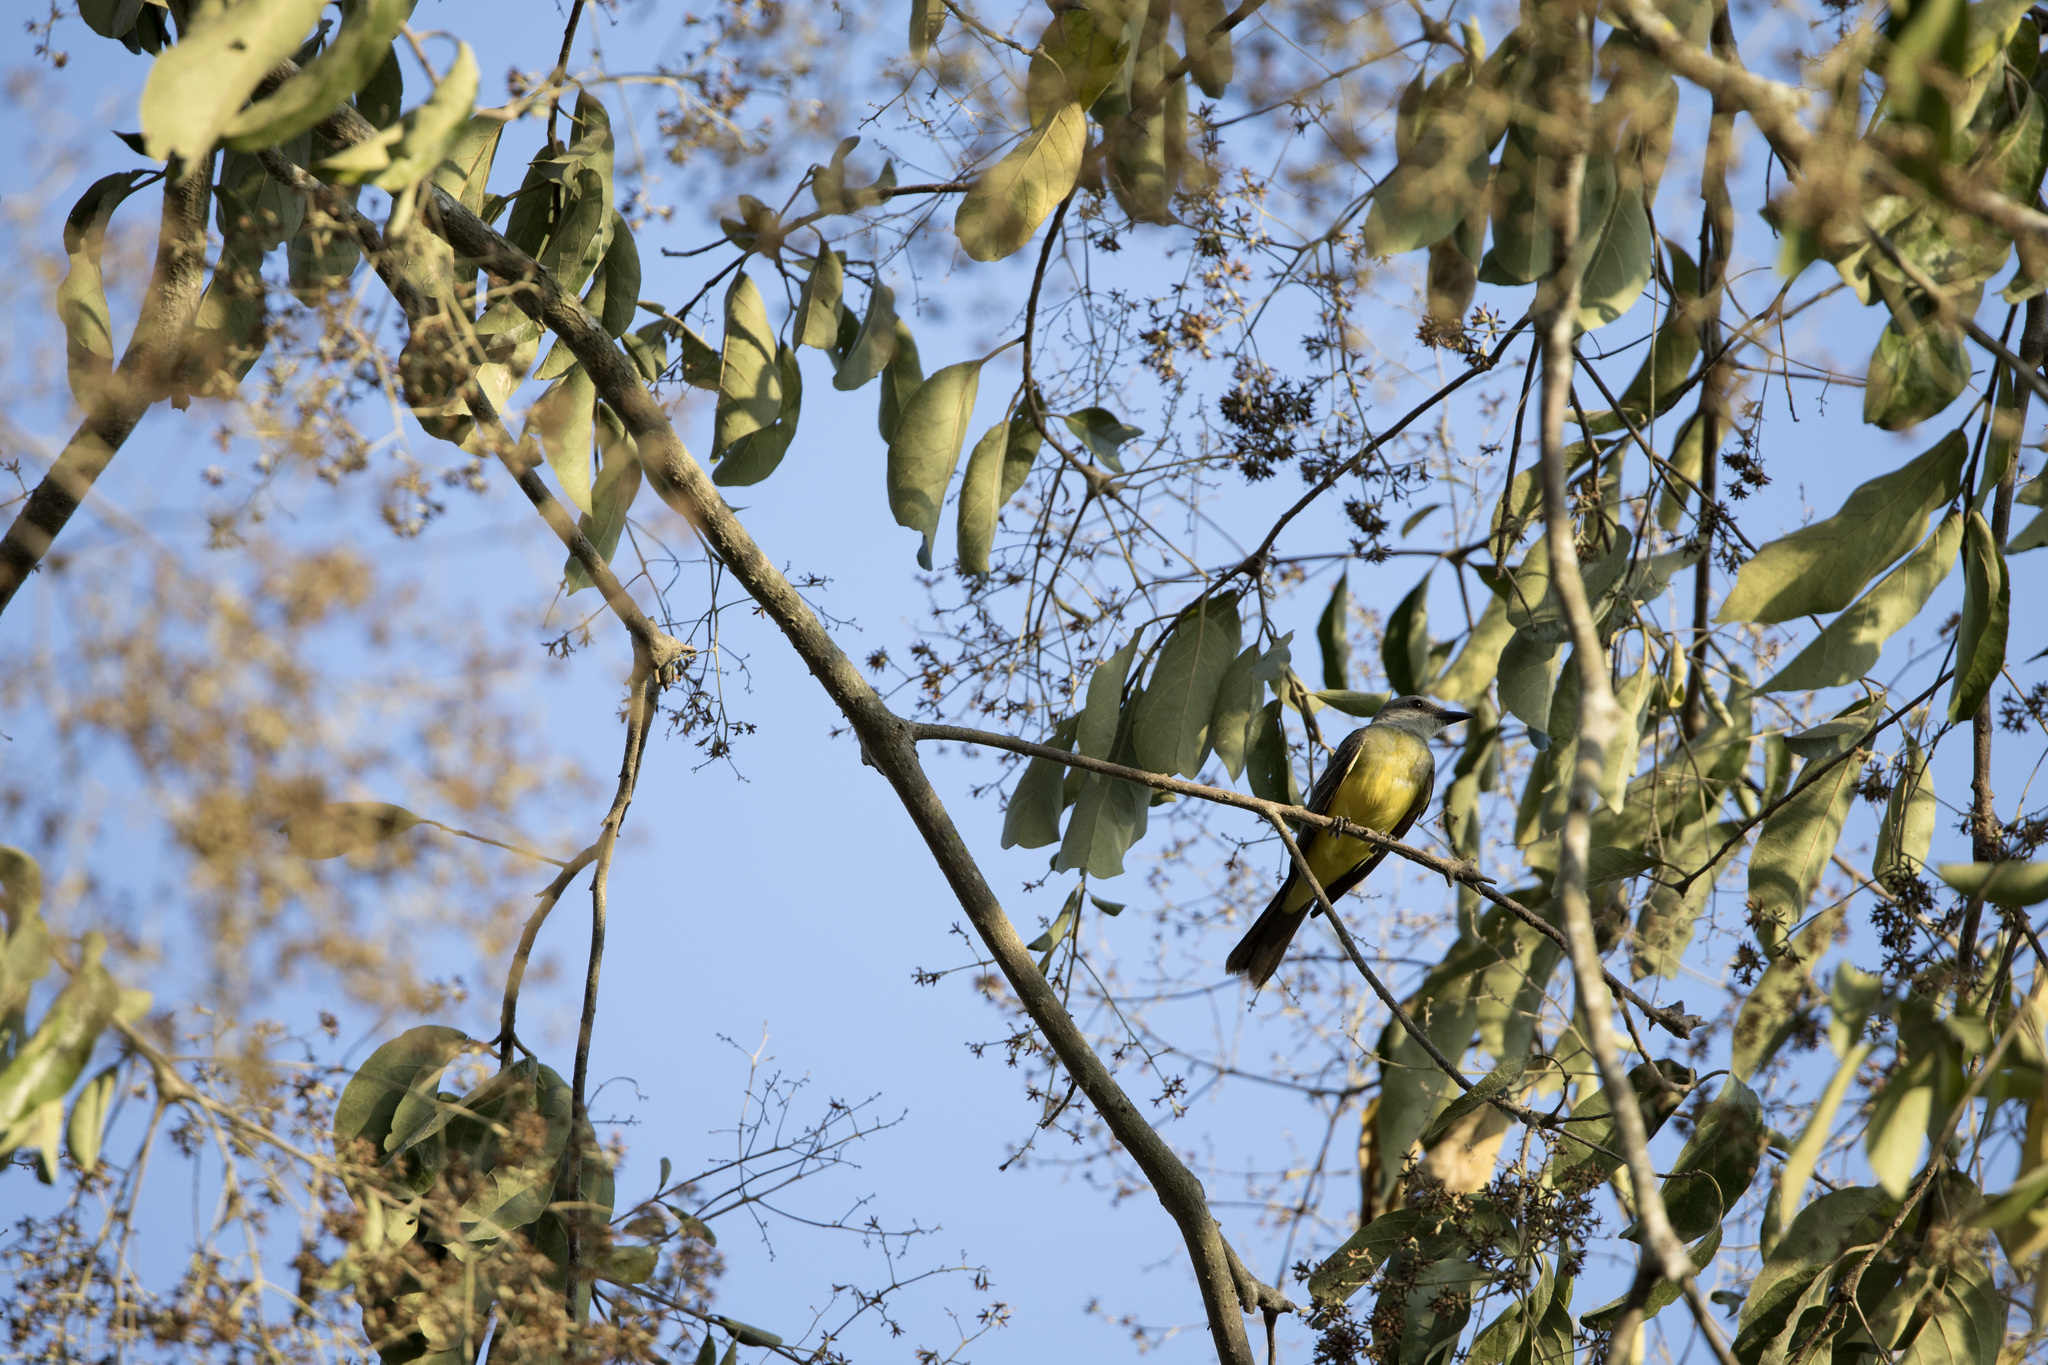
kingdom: Animalia
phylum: Chordata
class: Aves
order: Passeriformes
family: Tyrannidae
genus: Tyrannus
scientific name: Tyrannus melancholicus
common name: Tropical kingbird
